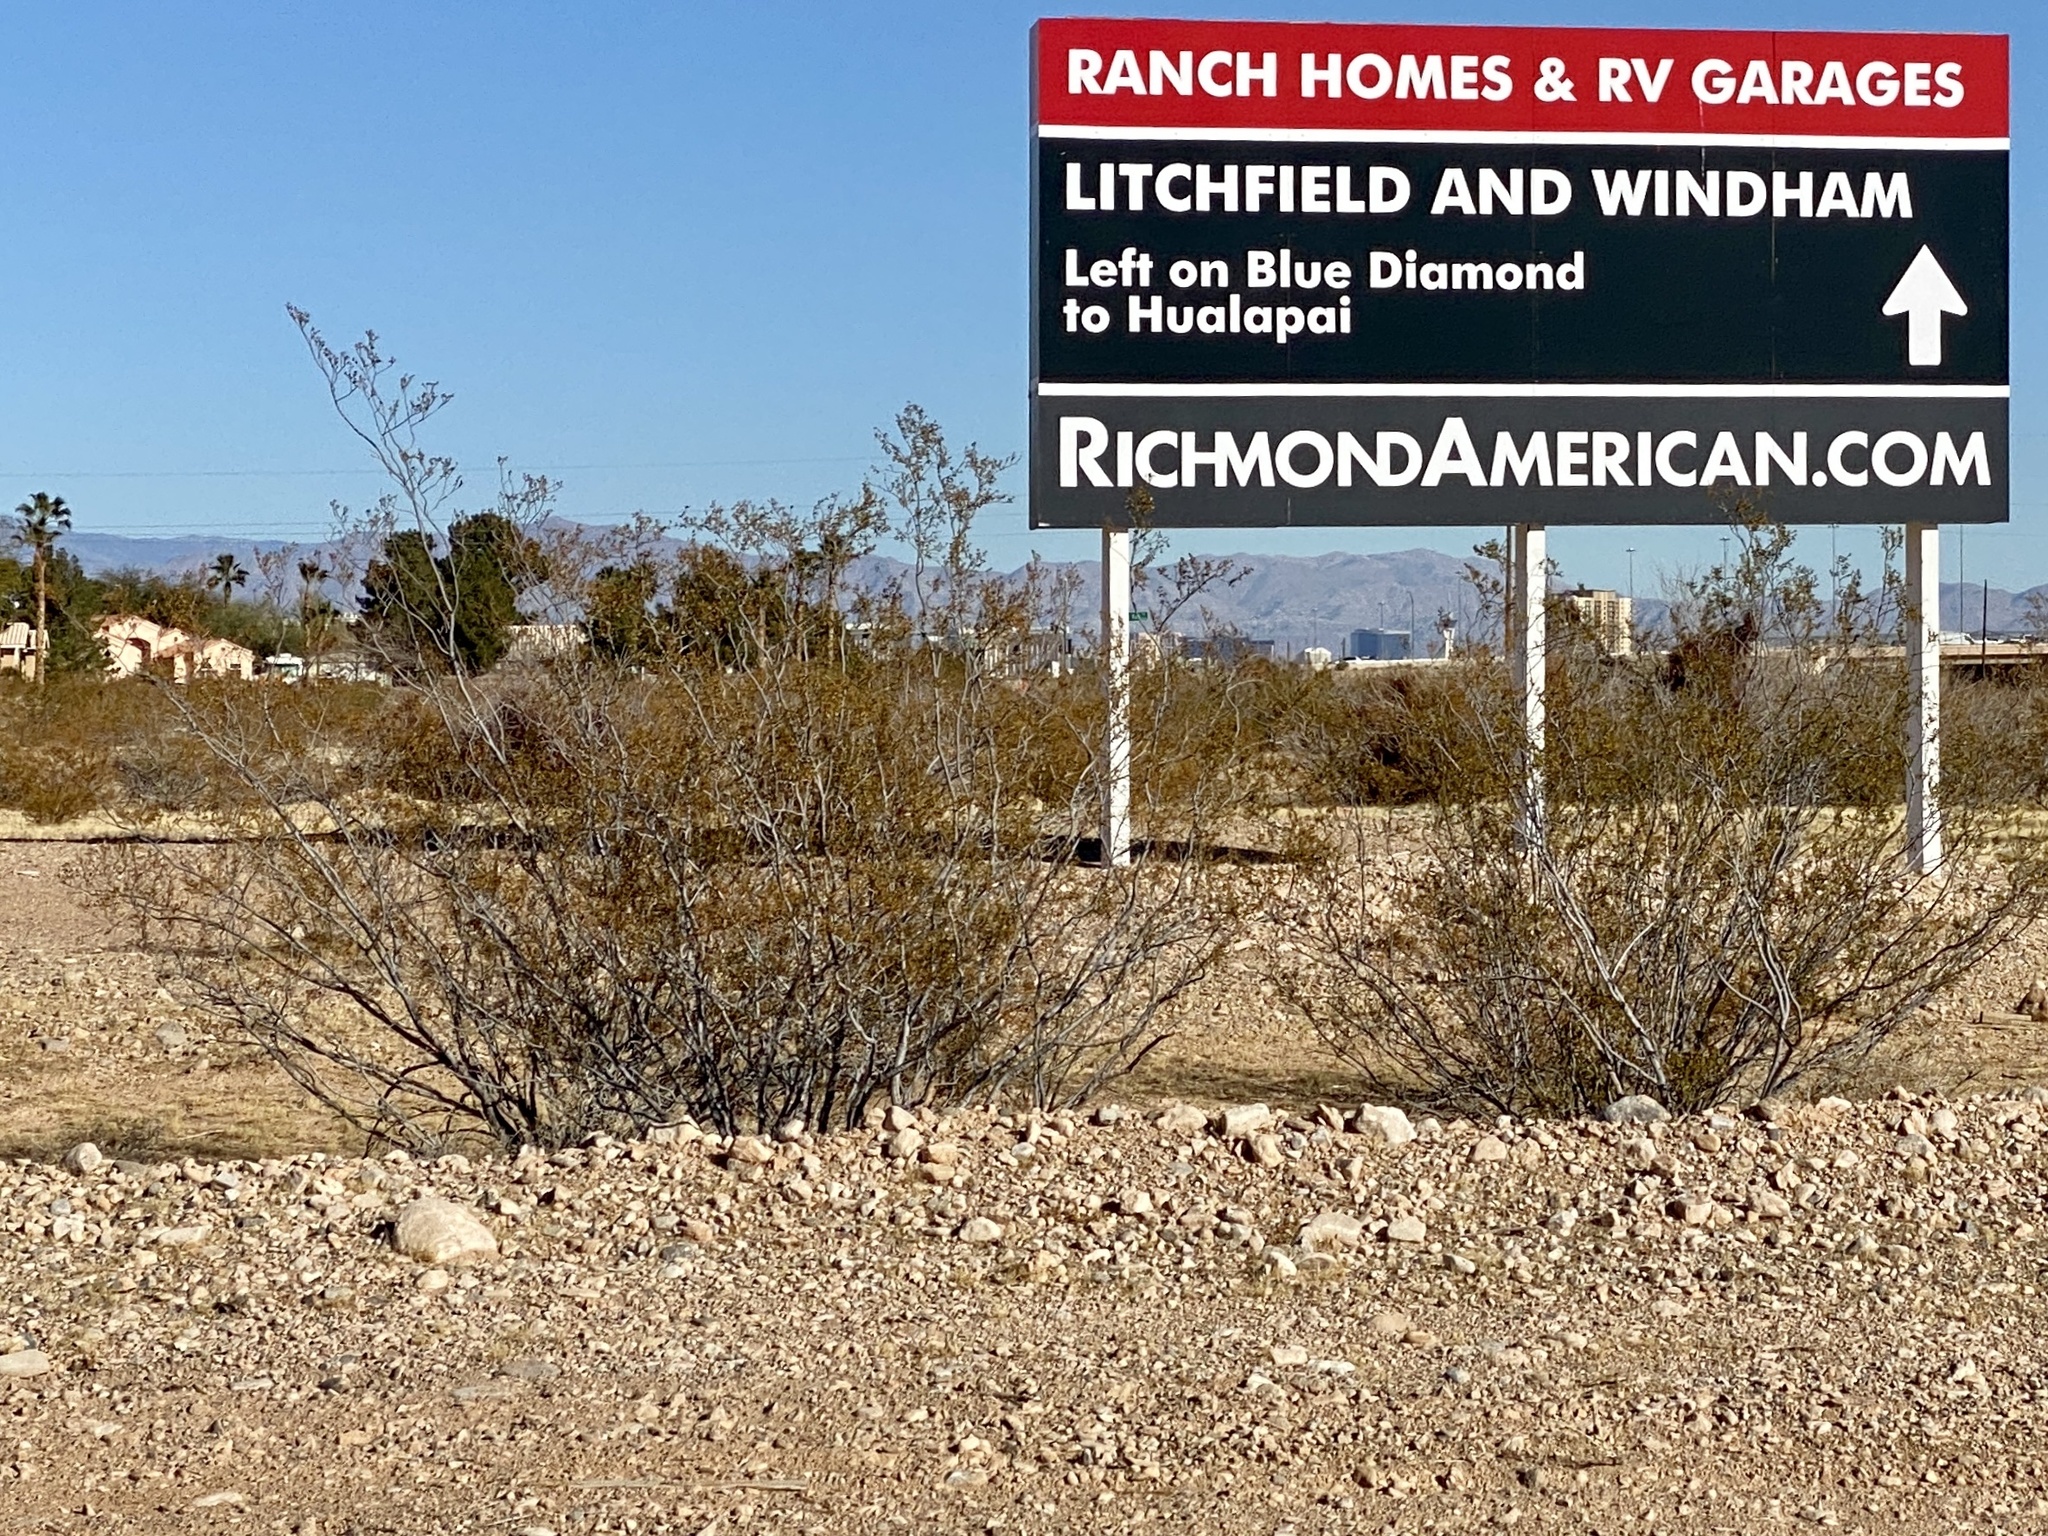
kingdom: Plantae
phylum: Tracheophyta
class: Magnoliopsida
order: Zygophyllales
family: Zygophyllaceae
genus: Larrea
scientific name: Larrea tridentata
